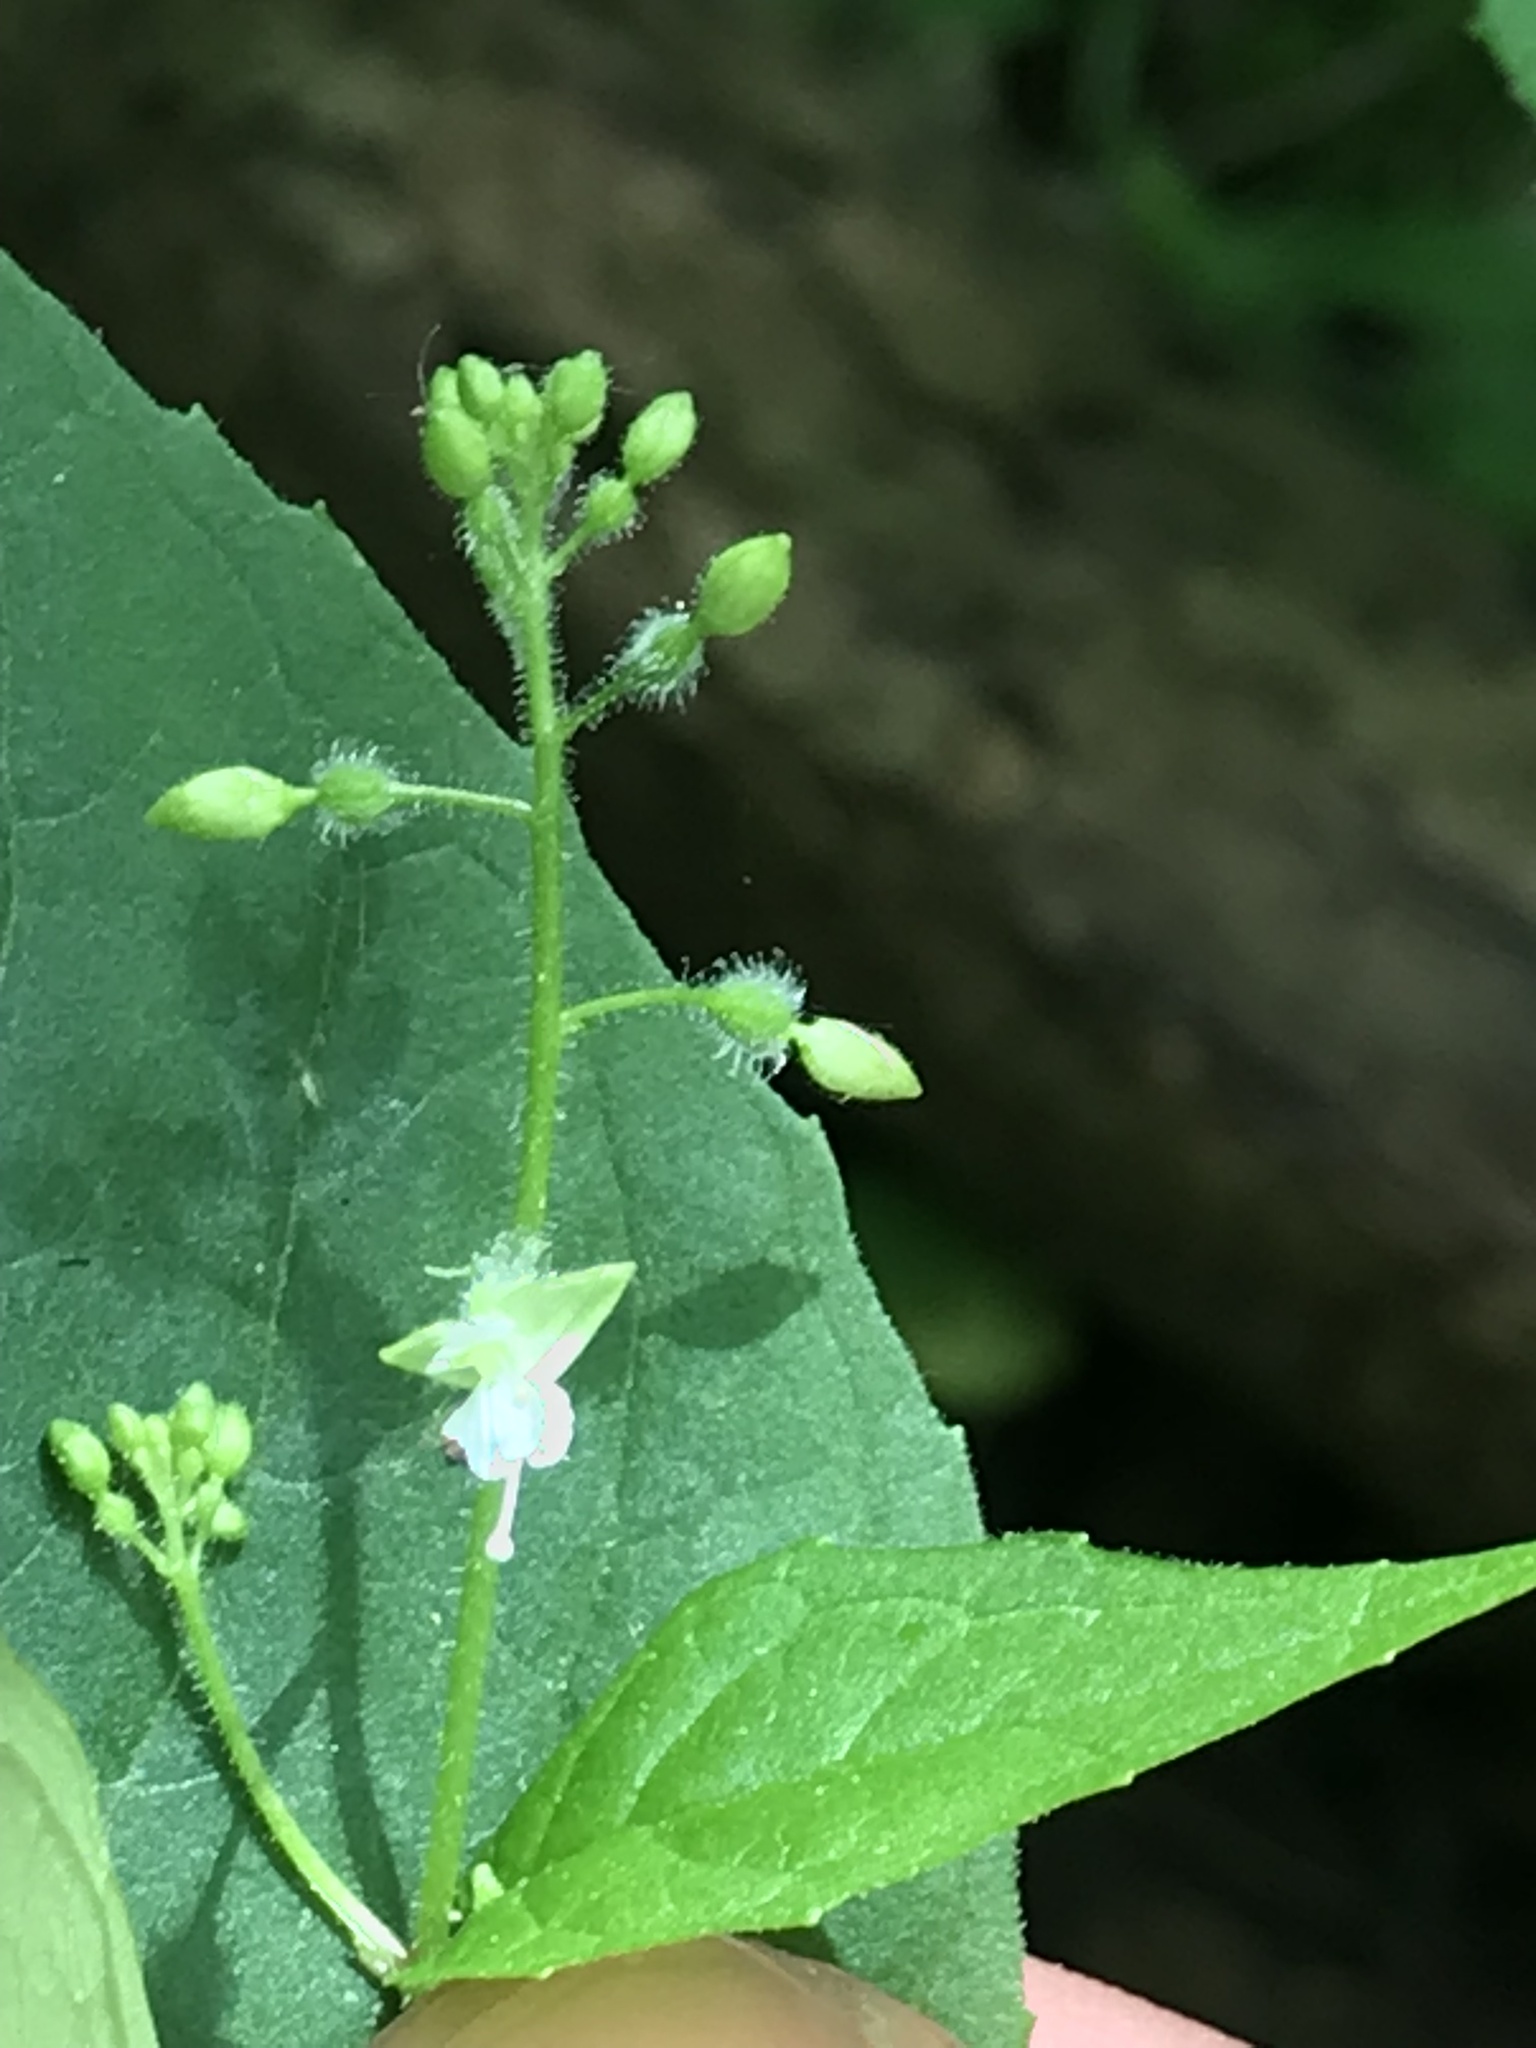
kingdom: Plantae
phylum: Tracheophyta
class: Magnoliopsida
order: Myrtales
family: Onagraceae
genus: Circaea
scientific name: Circaea canadensis
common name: Broad-leaved enchanter's nightshade
